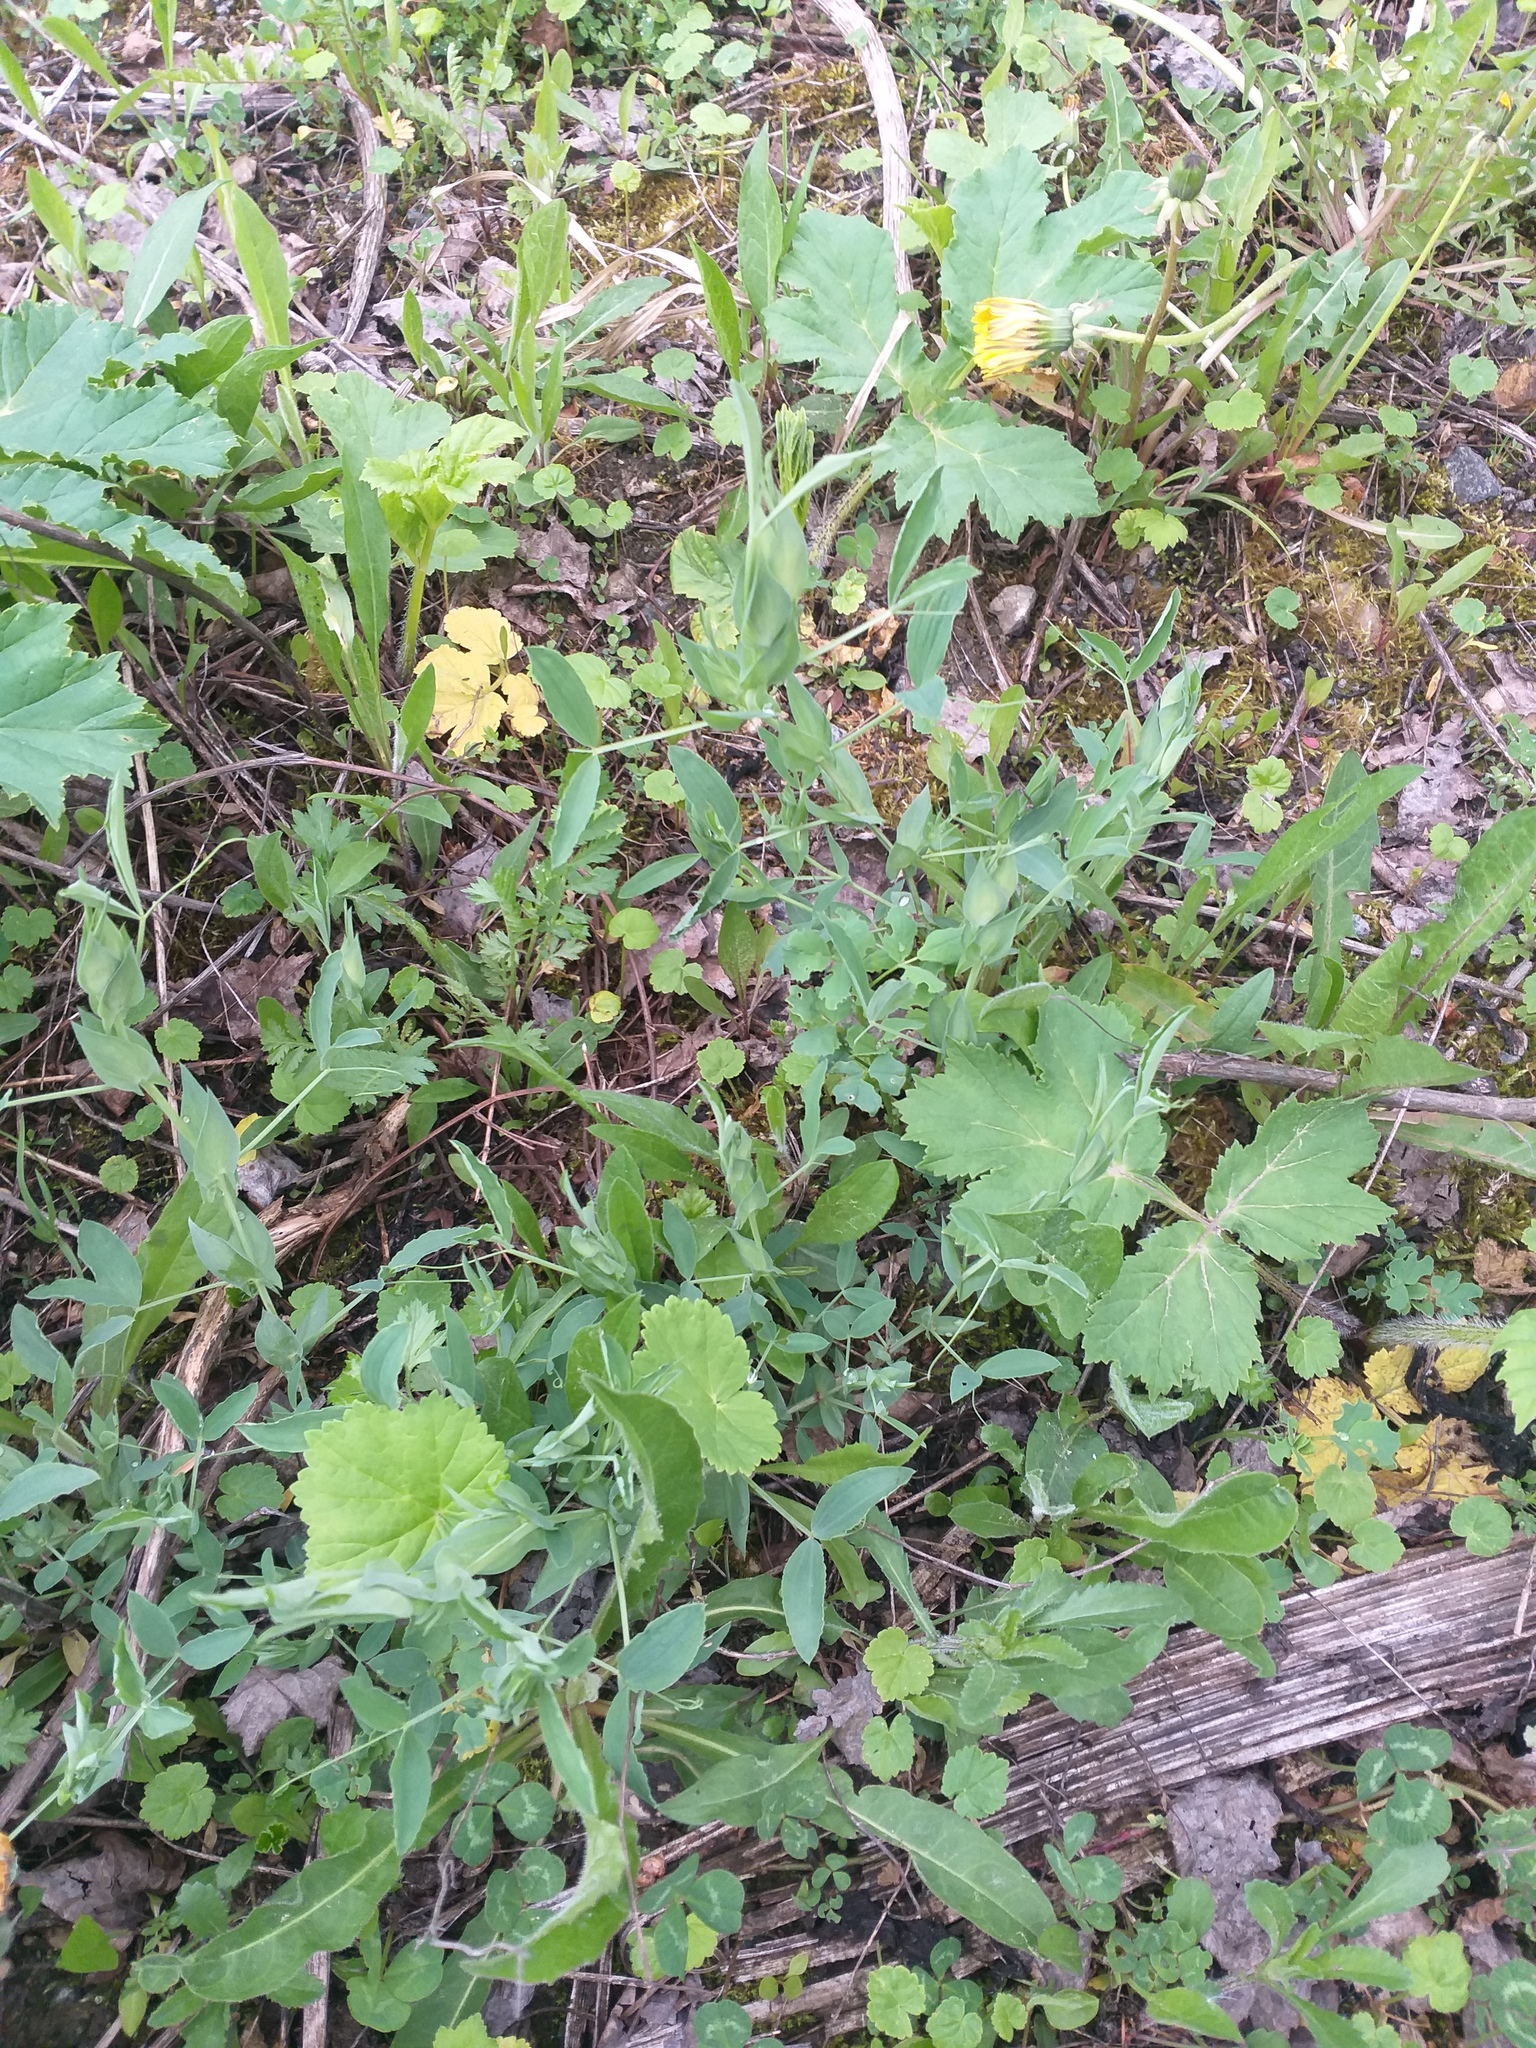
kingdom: Plantae
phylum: Tracheophyta
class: Magnoliopsida
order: Fabales
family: Fabaceae
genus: Lathyrus
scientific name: Lathyrus pratensis
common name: Meadow vetchling
